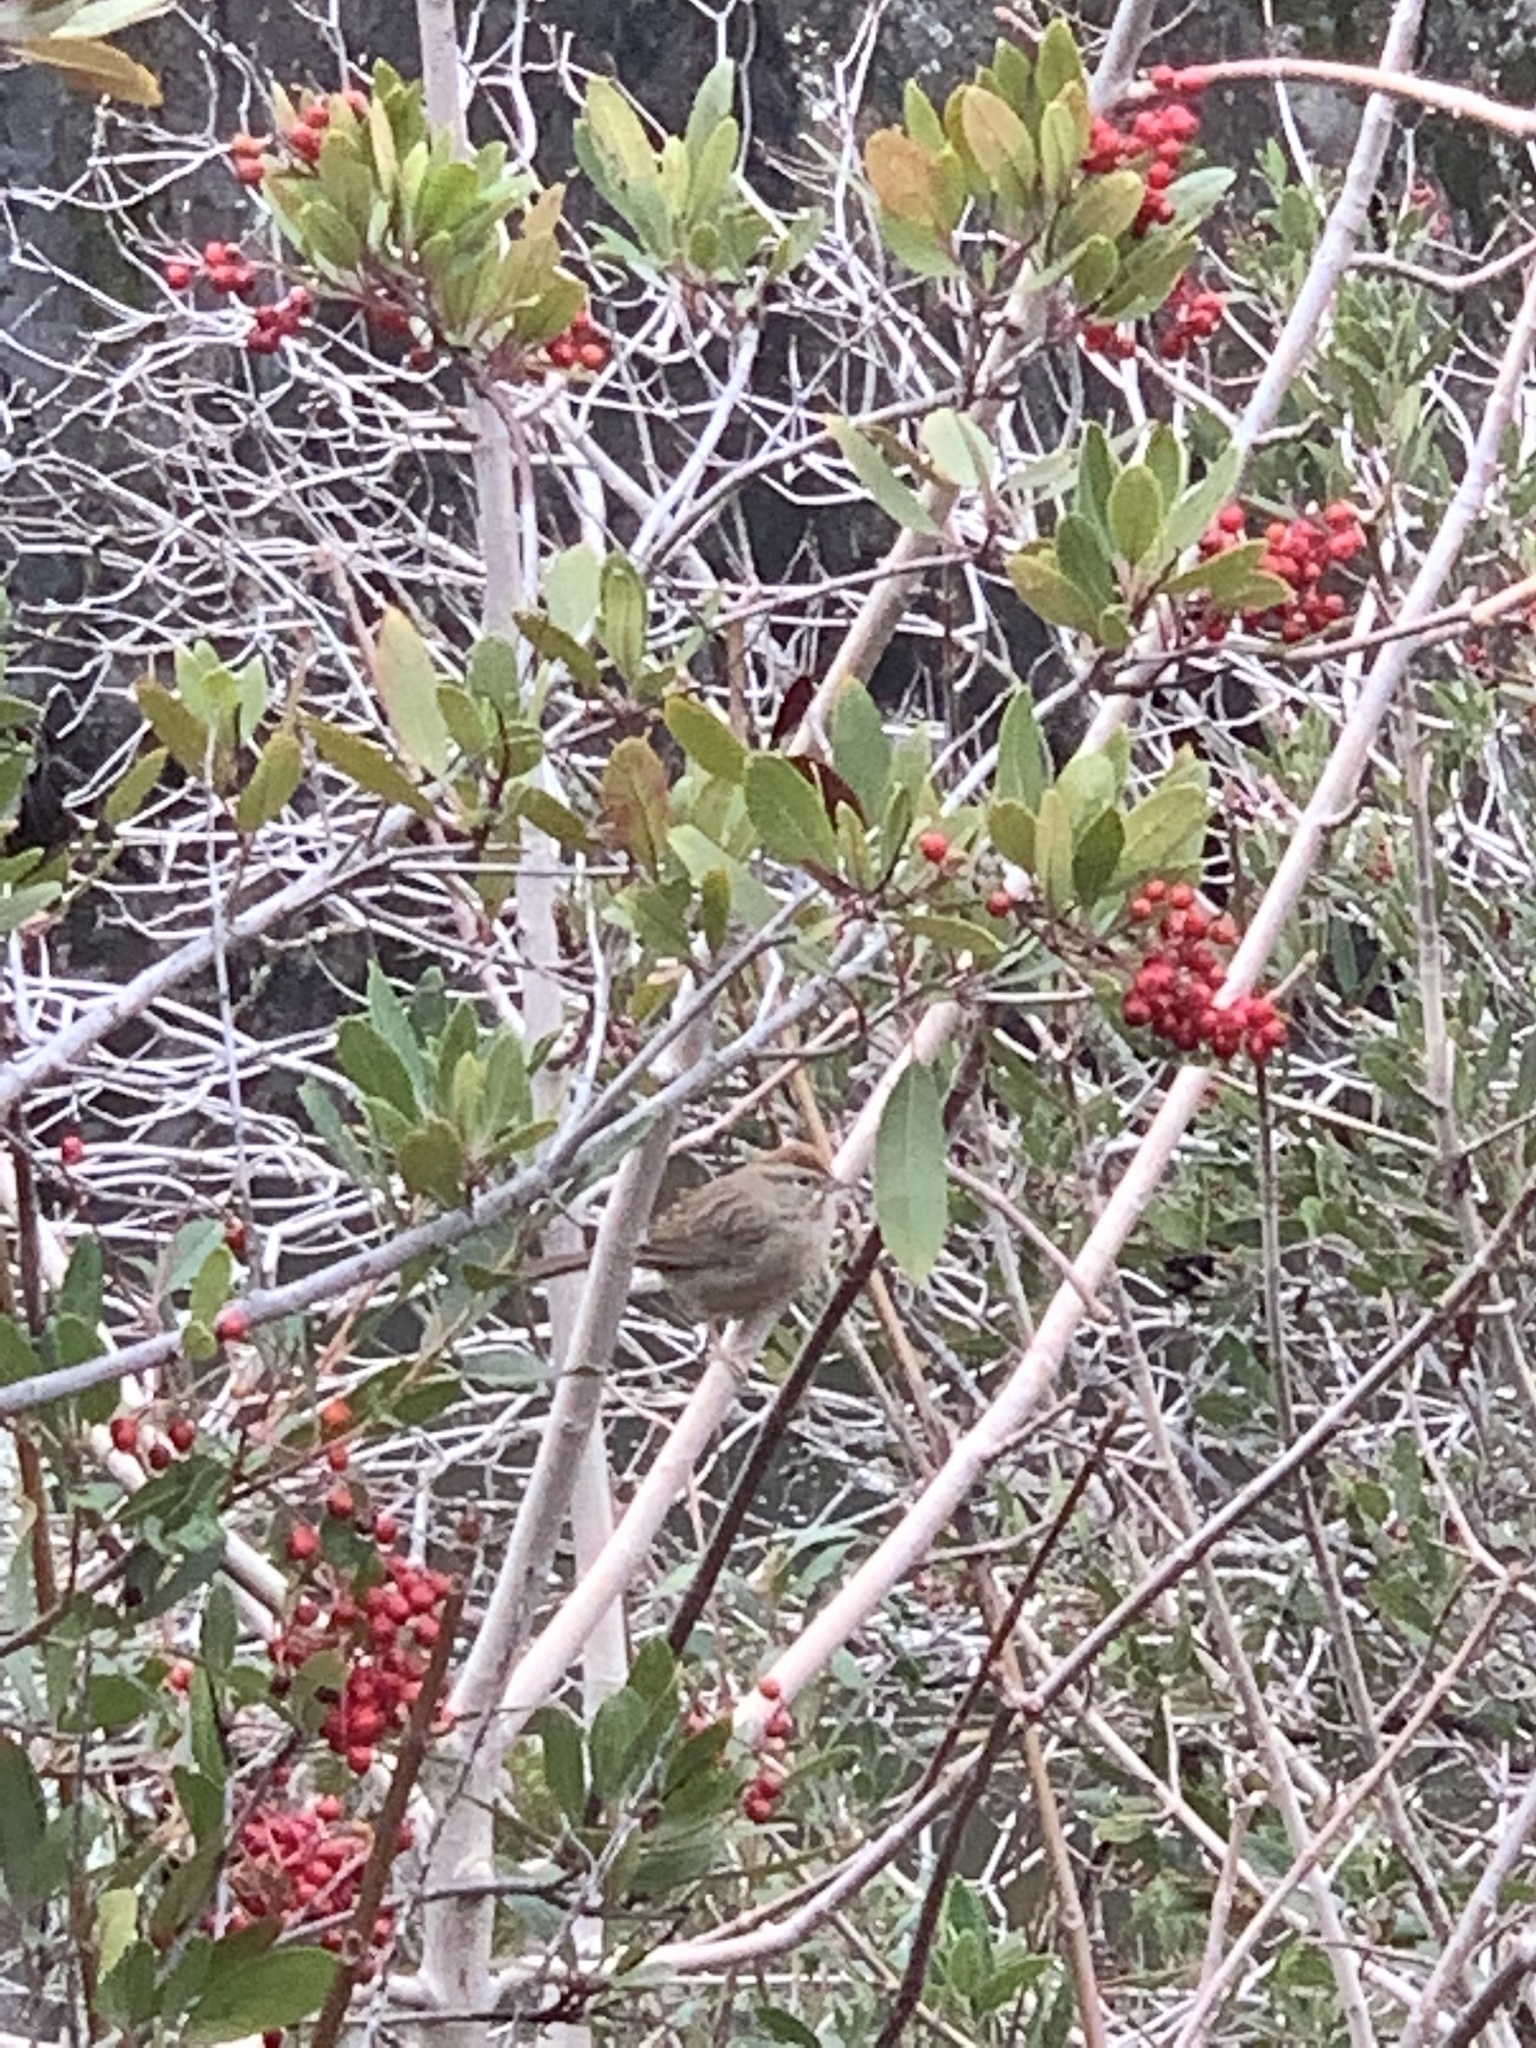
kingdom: Animalia
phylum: Chordata
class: Aves
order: Passeriformes
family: Passerellidae
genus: Aimophila
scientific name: Aimophila ruficeps
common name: Rufous-crowned sparrow
